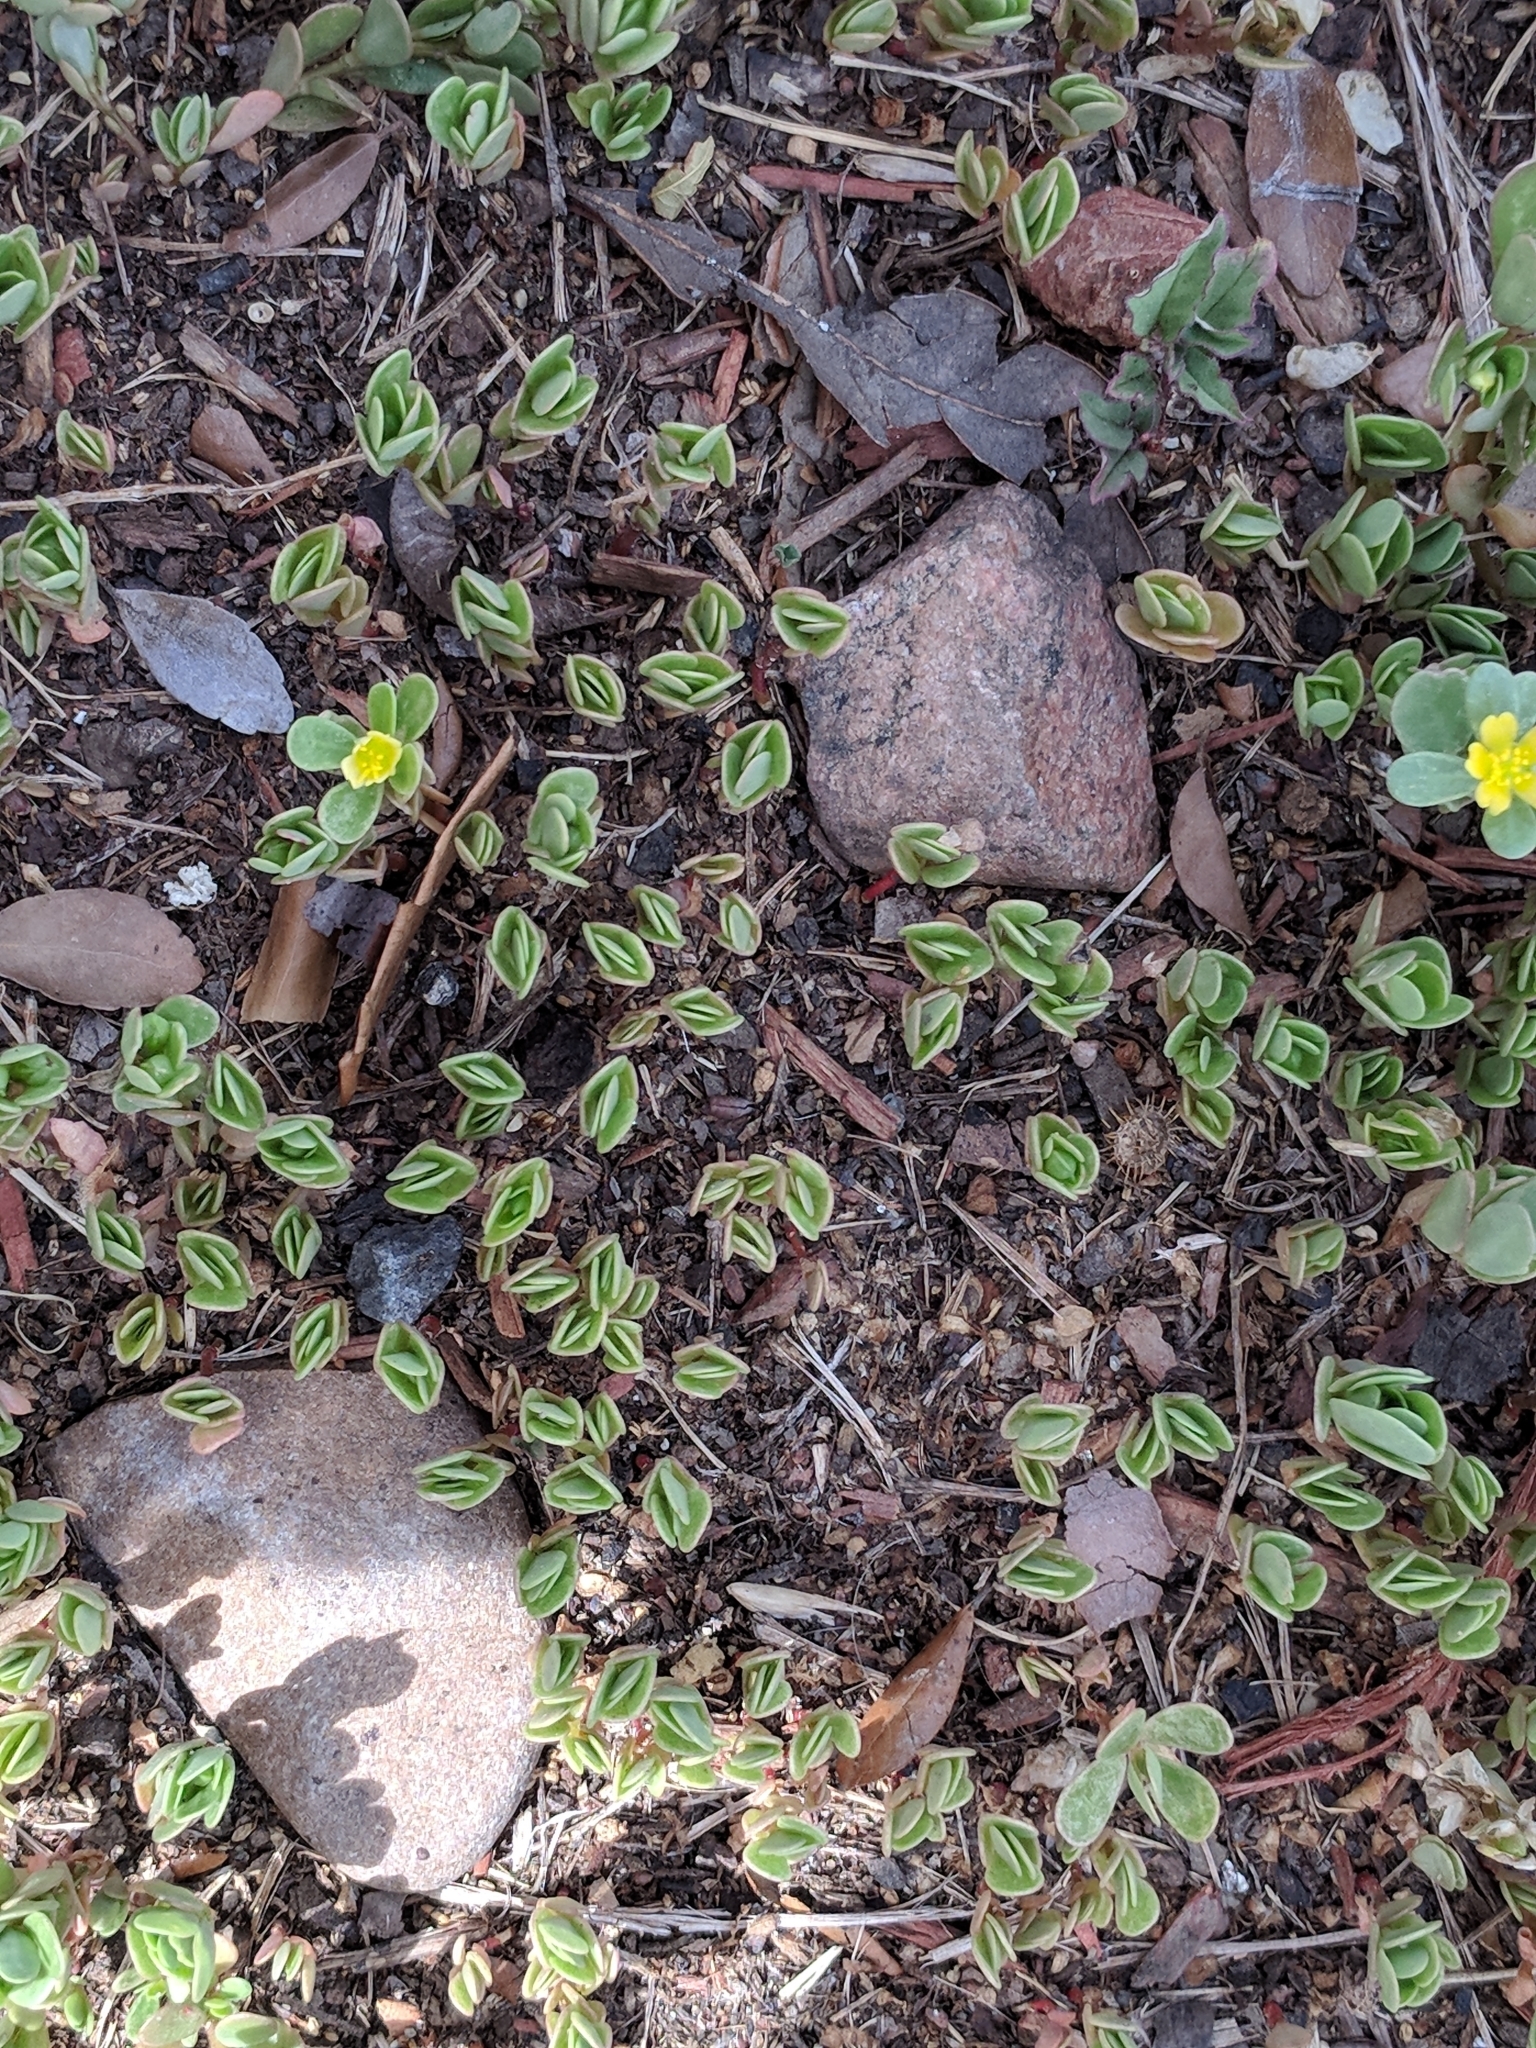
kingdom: Plantae
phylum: Tracheophyta
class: Magnoliopsida
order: Caryophyllales
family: Portulacaceae
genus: Portulaca
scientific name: Portulaca oleracea
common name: Common purslane
